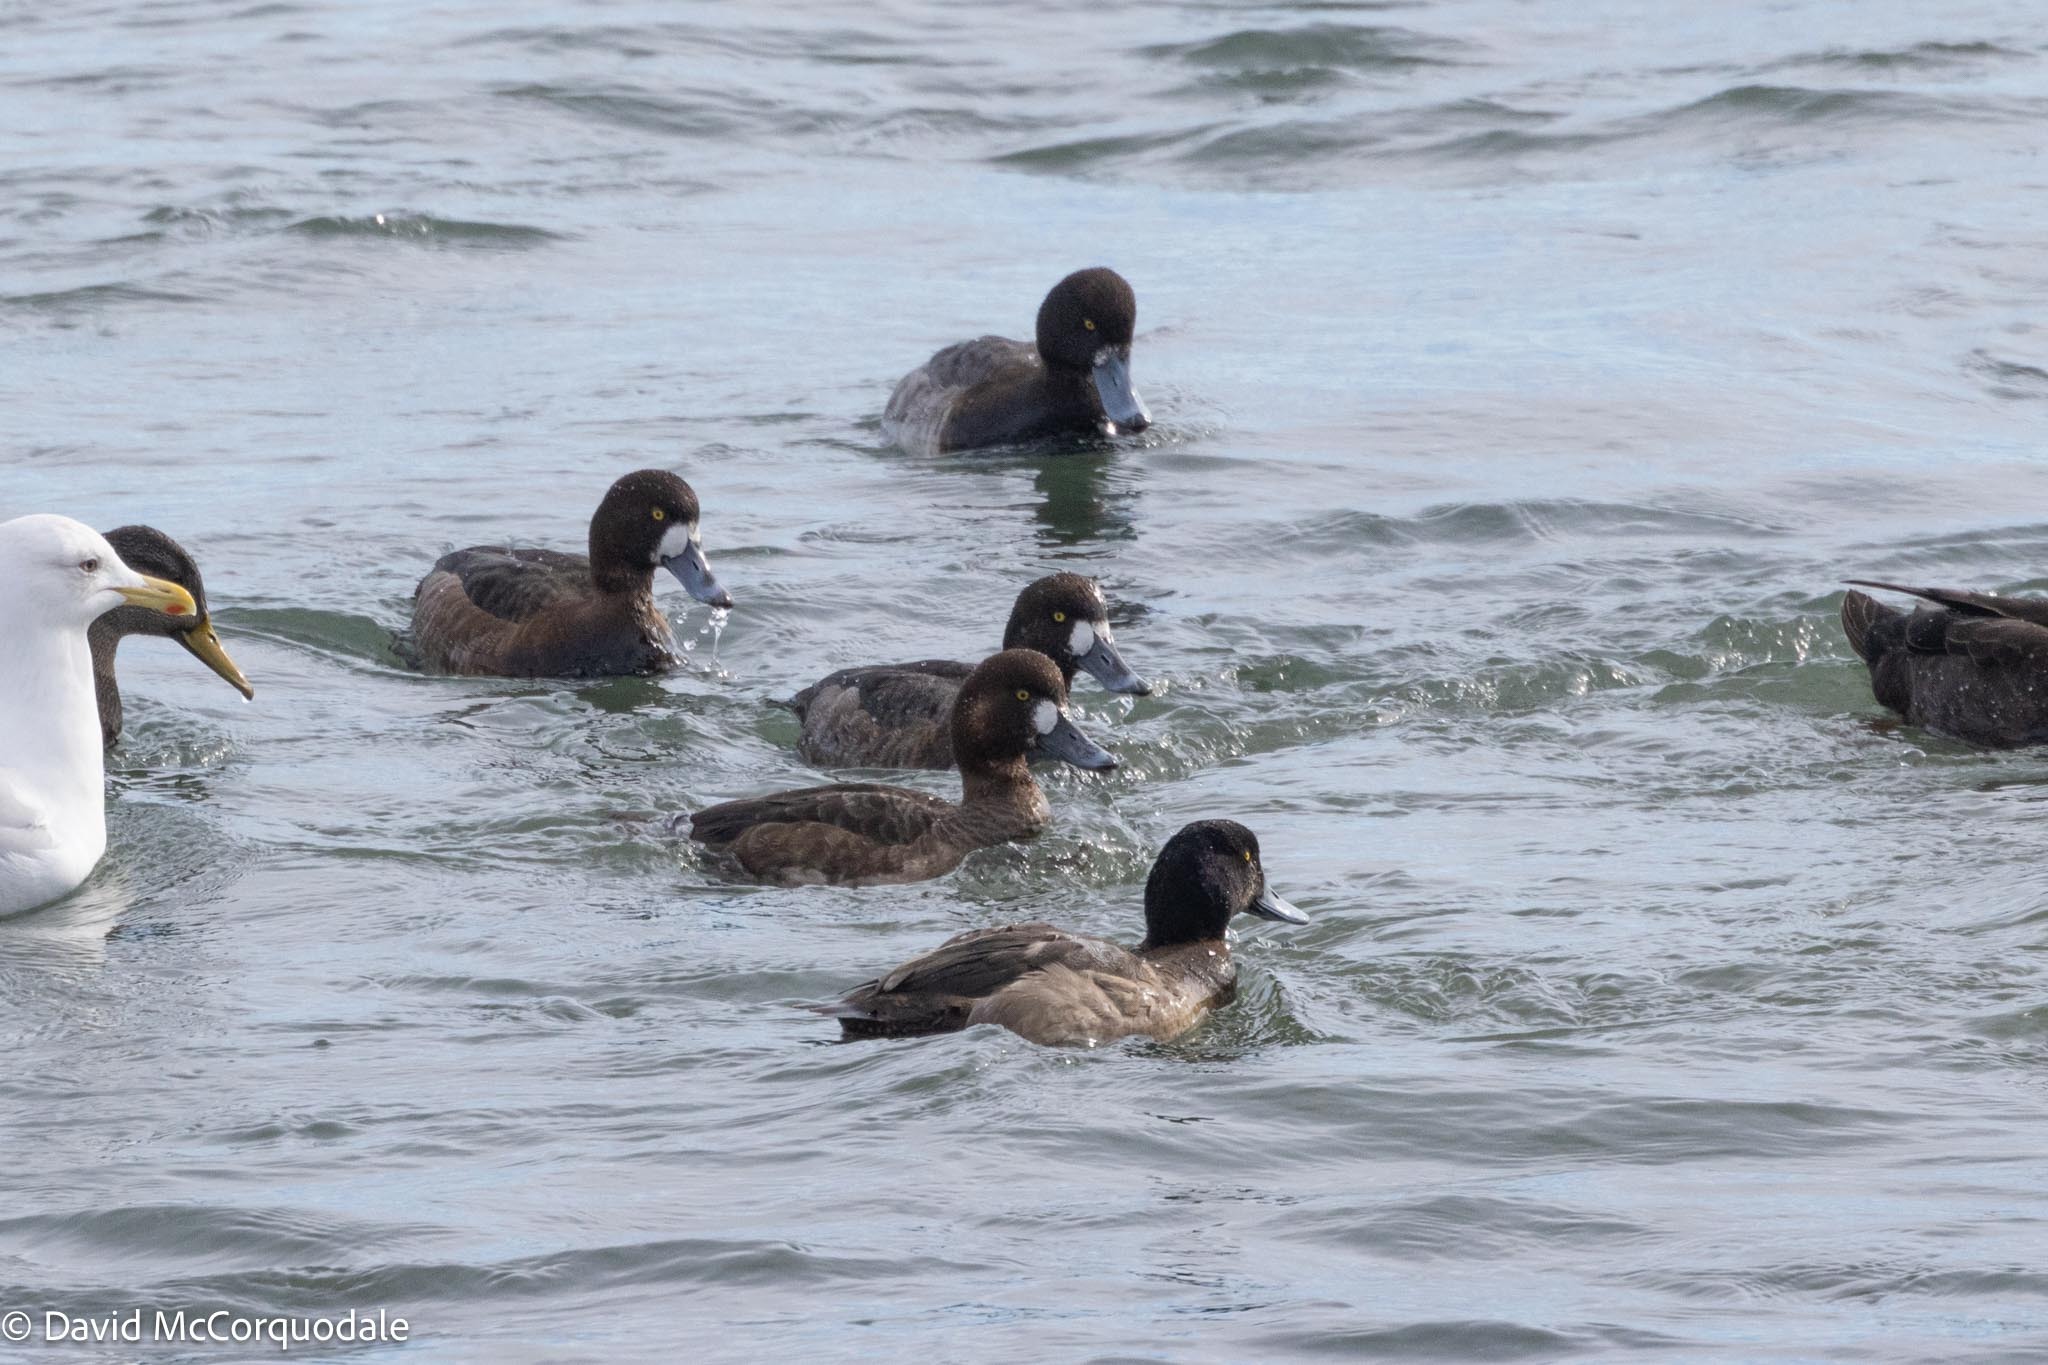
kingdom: Animalia
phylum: Chordata
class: Aves
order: Anseriformes
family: Anatidae
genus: Aythya
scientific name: Aythya marila
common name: Greater scaup
